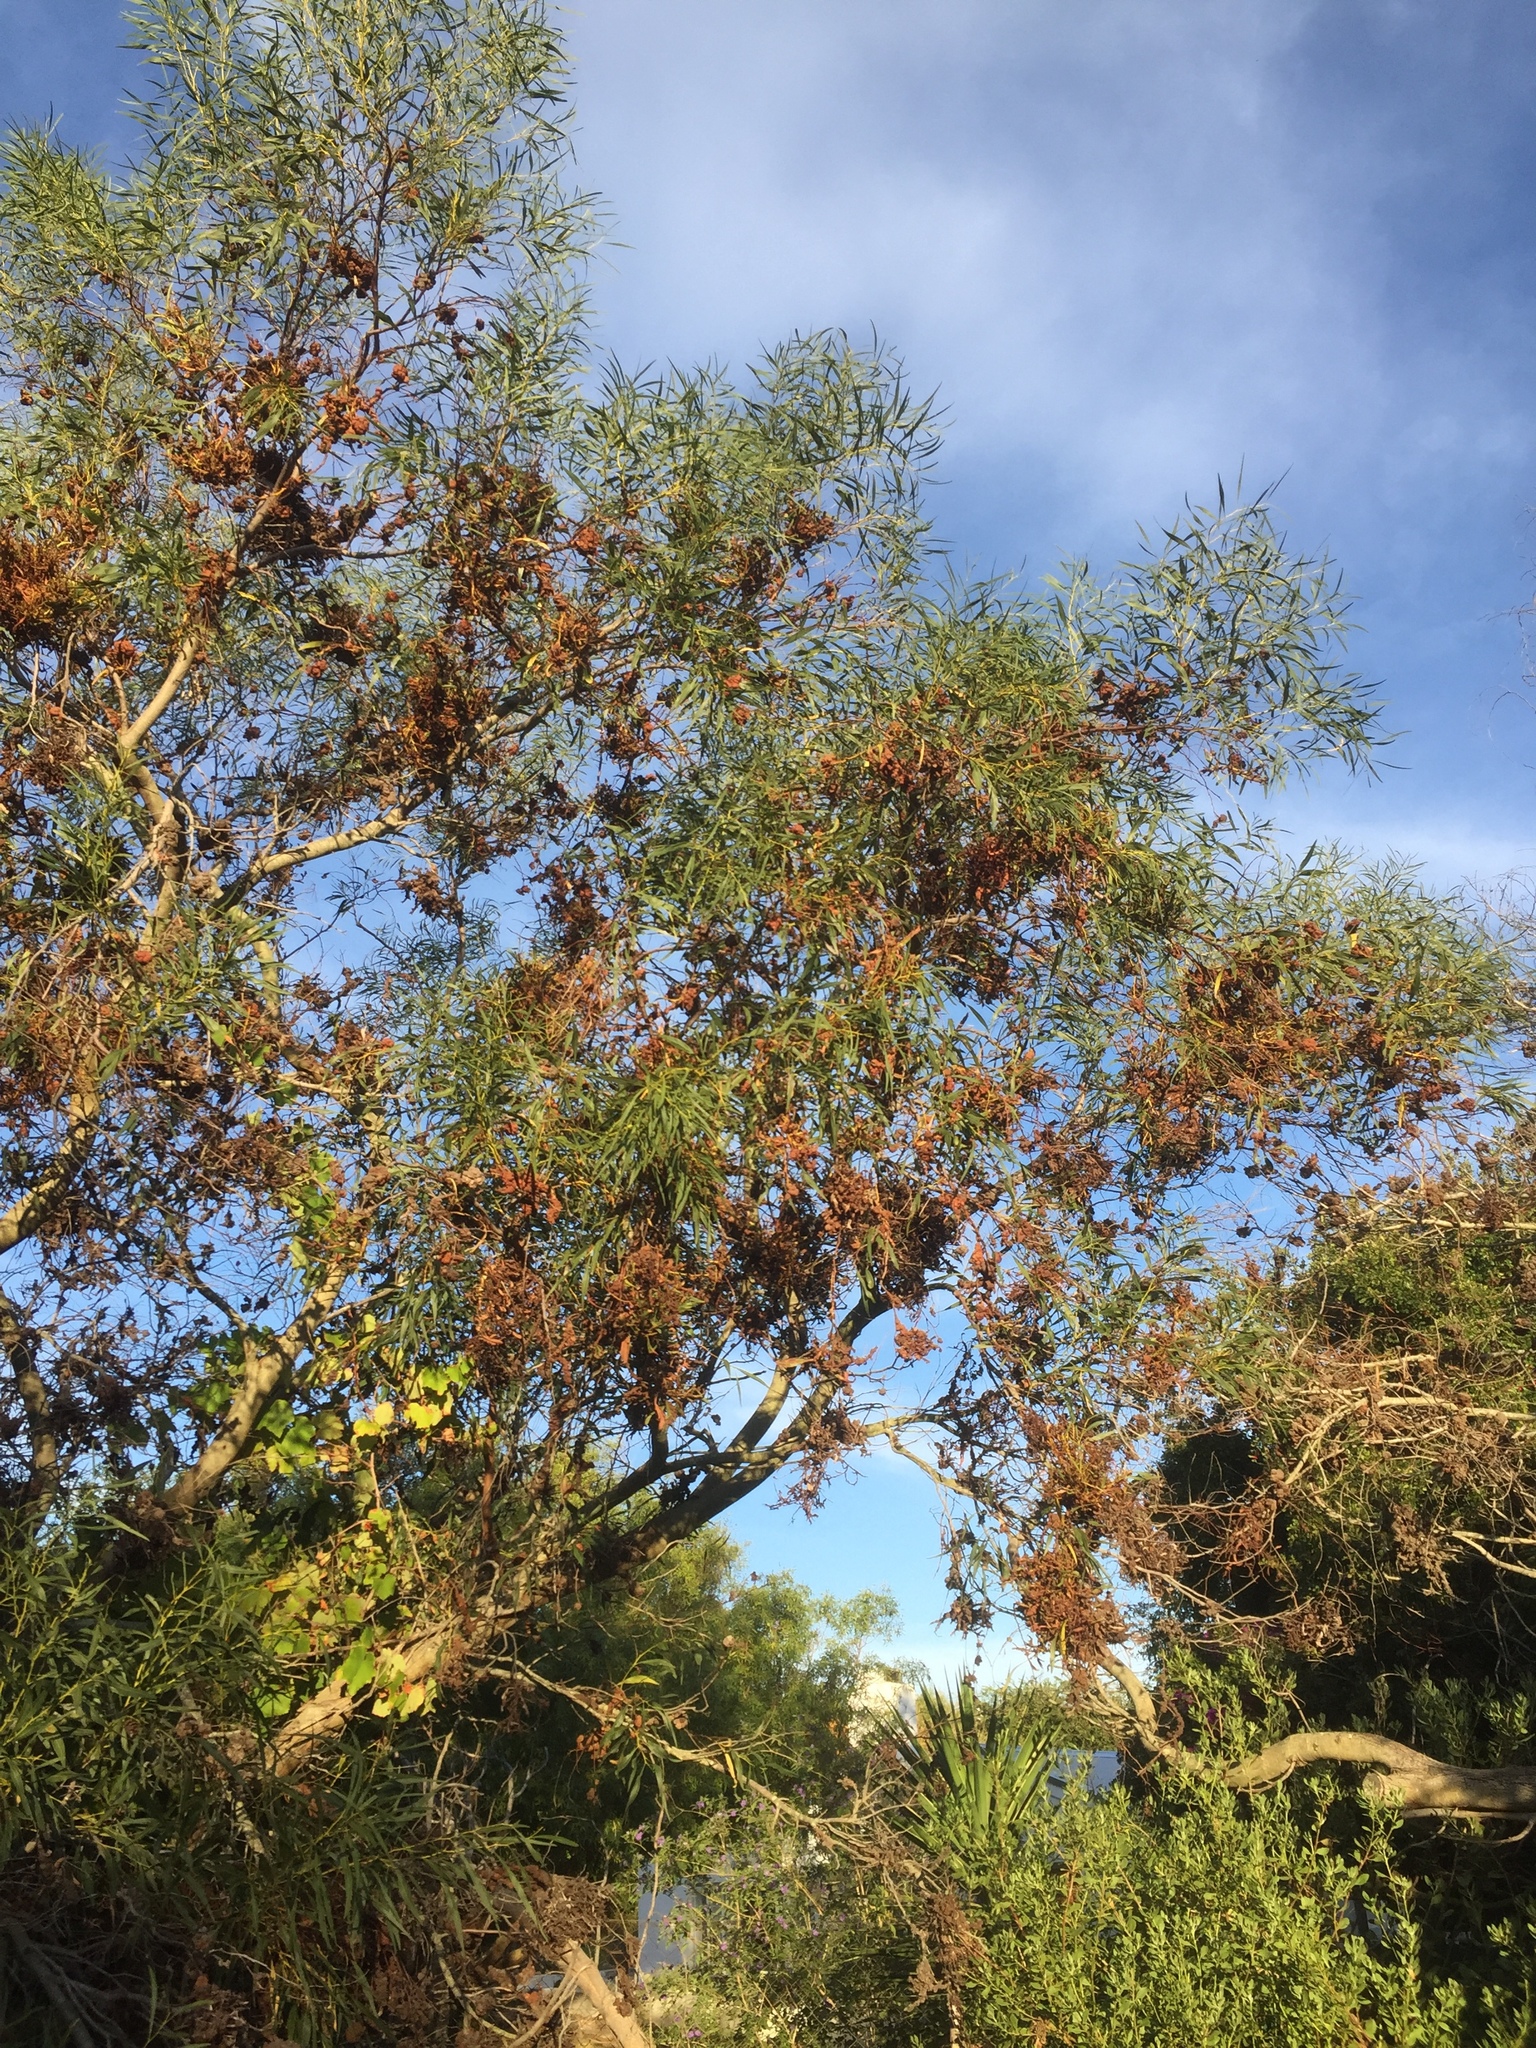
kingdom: Fungi
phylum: Basidiomycota
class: Pucciniomycetes
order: Pucciniales
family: Uromycladiaceae
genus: Uromycladium
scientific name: Uromycladium morrisii
